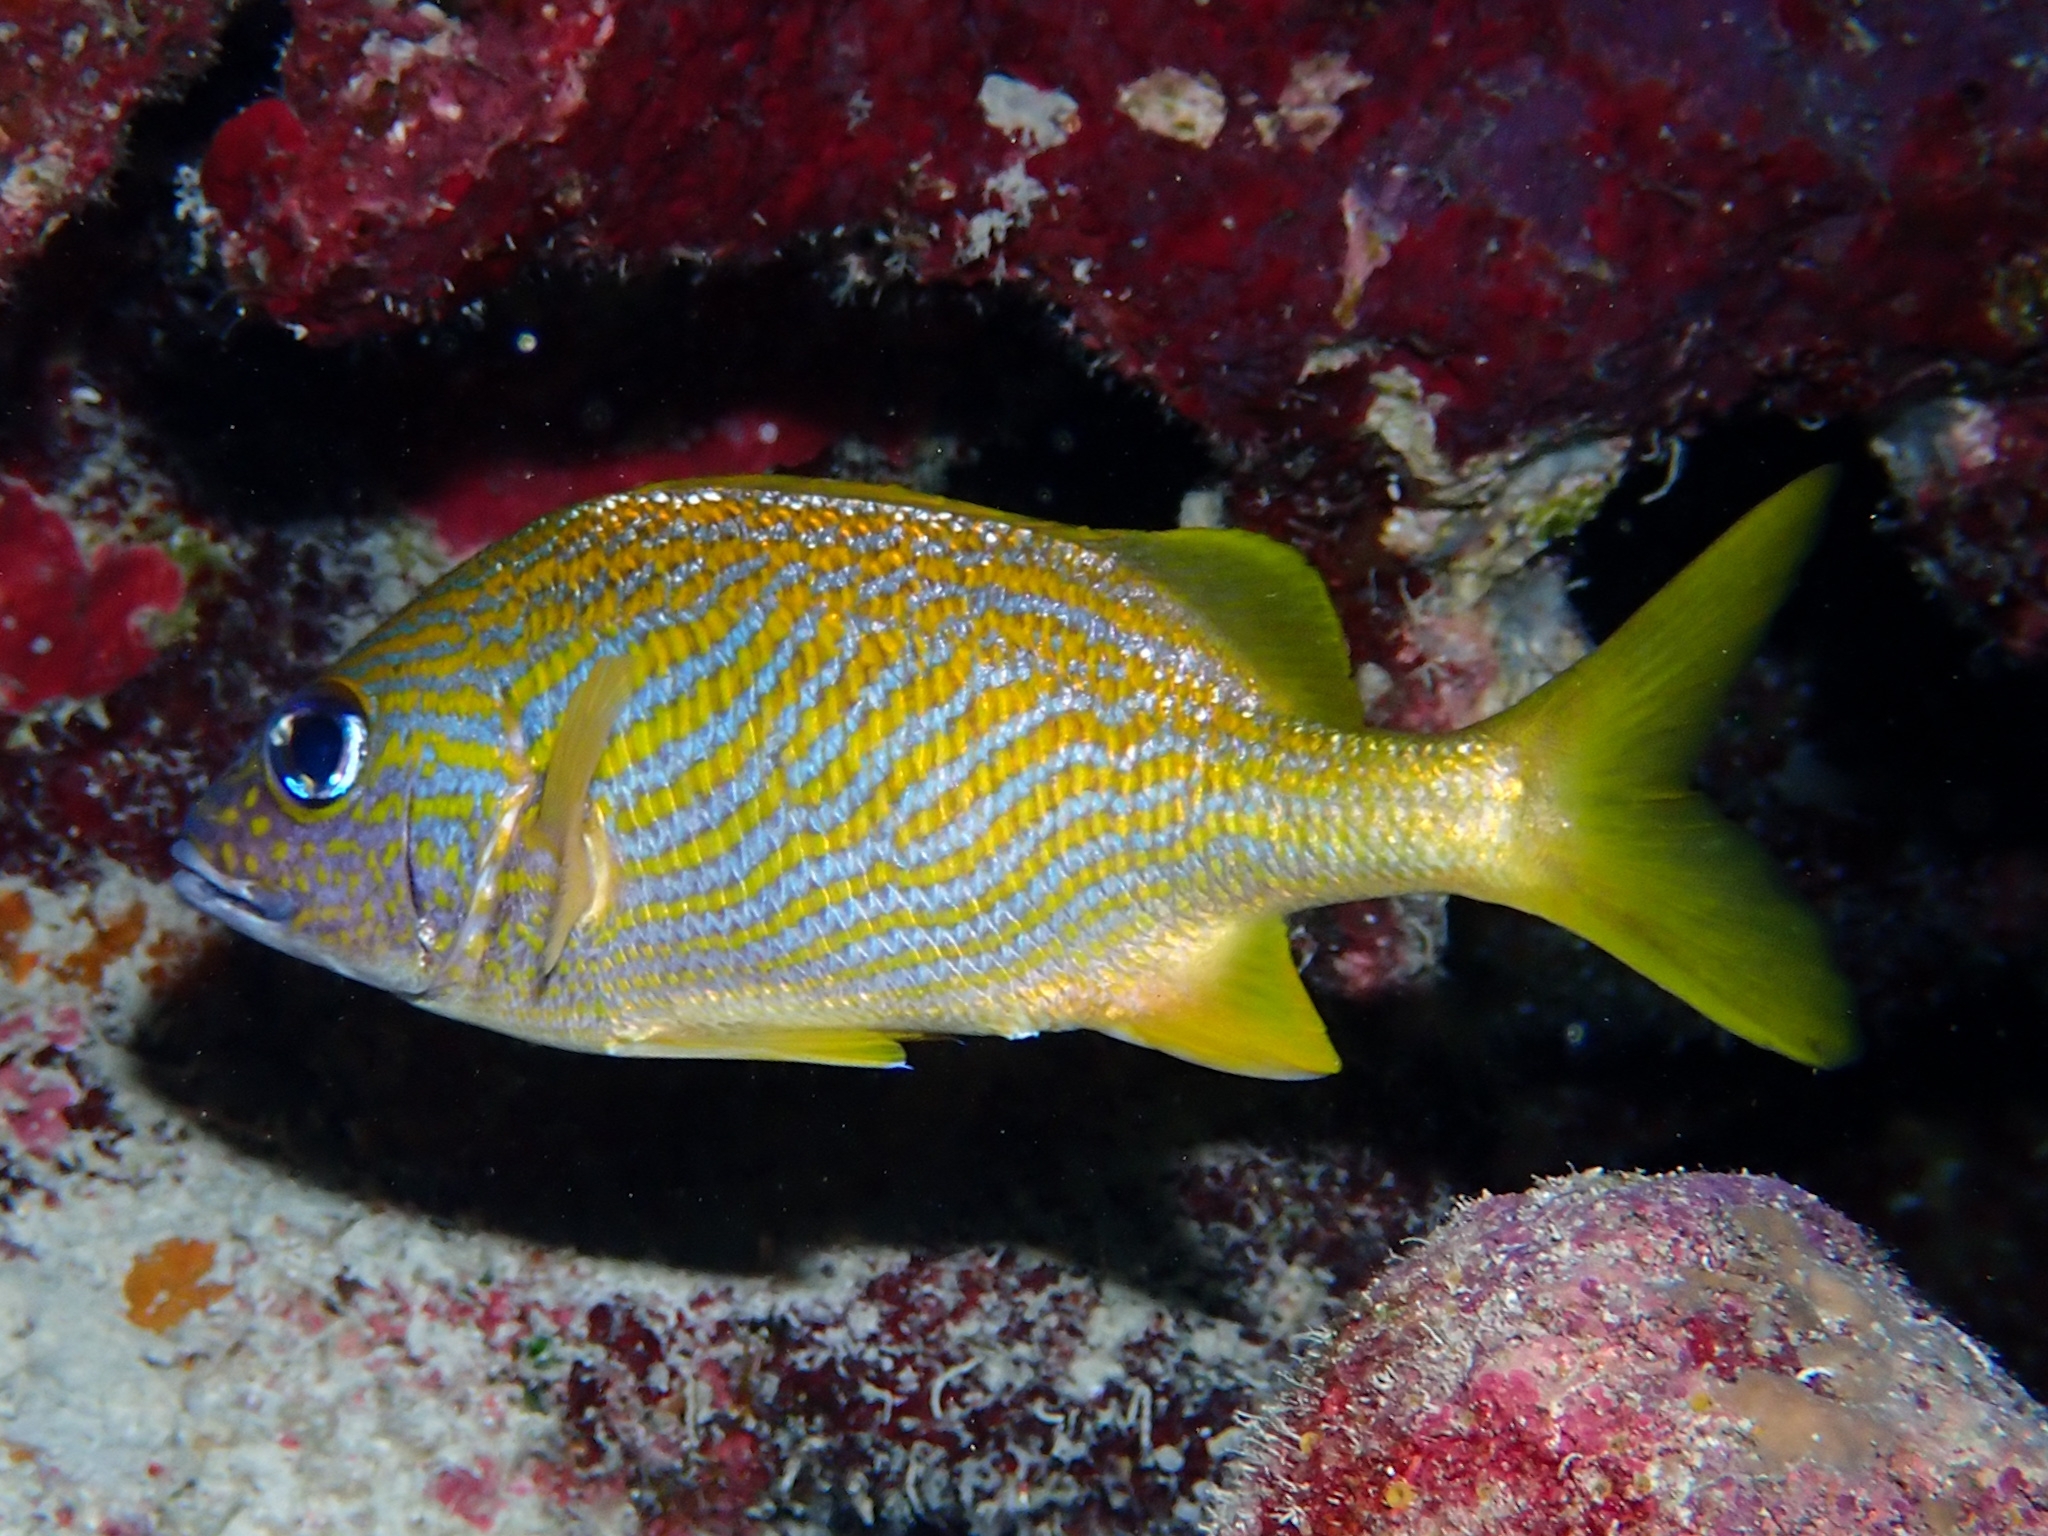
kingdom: Animalia
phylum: Chordata
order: Perciformes
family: Haemulidae
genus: Haemulon
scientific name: Haemulon flavolineatum
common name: French grunt
